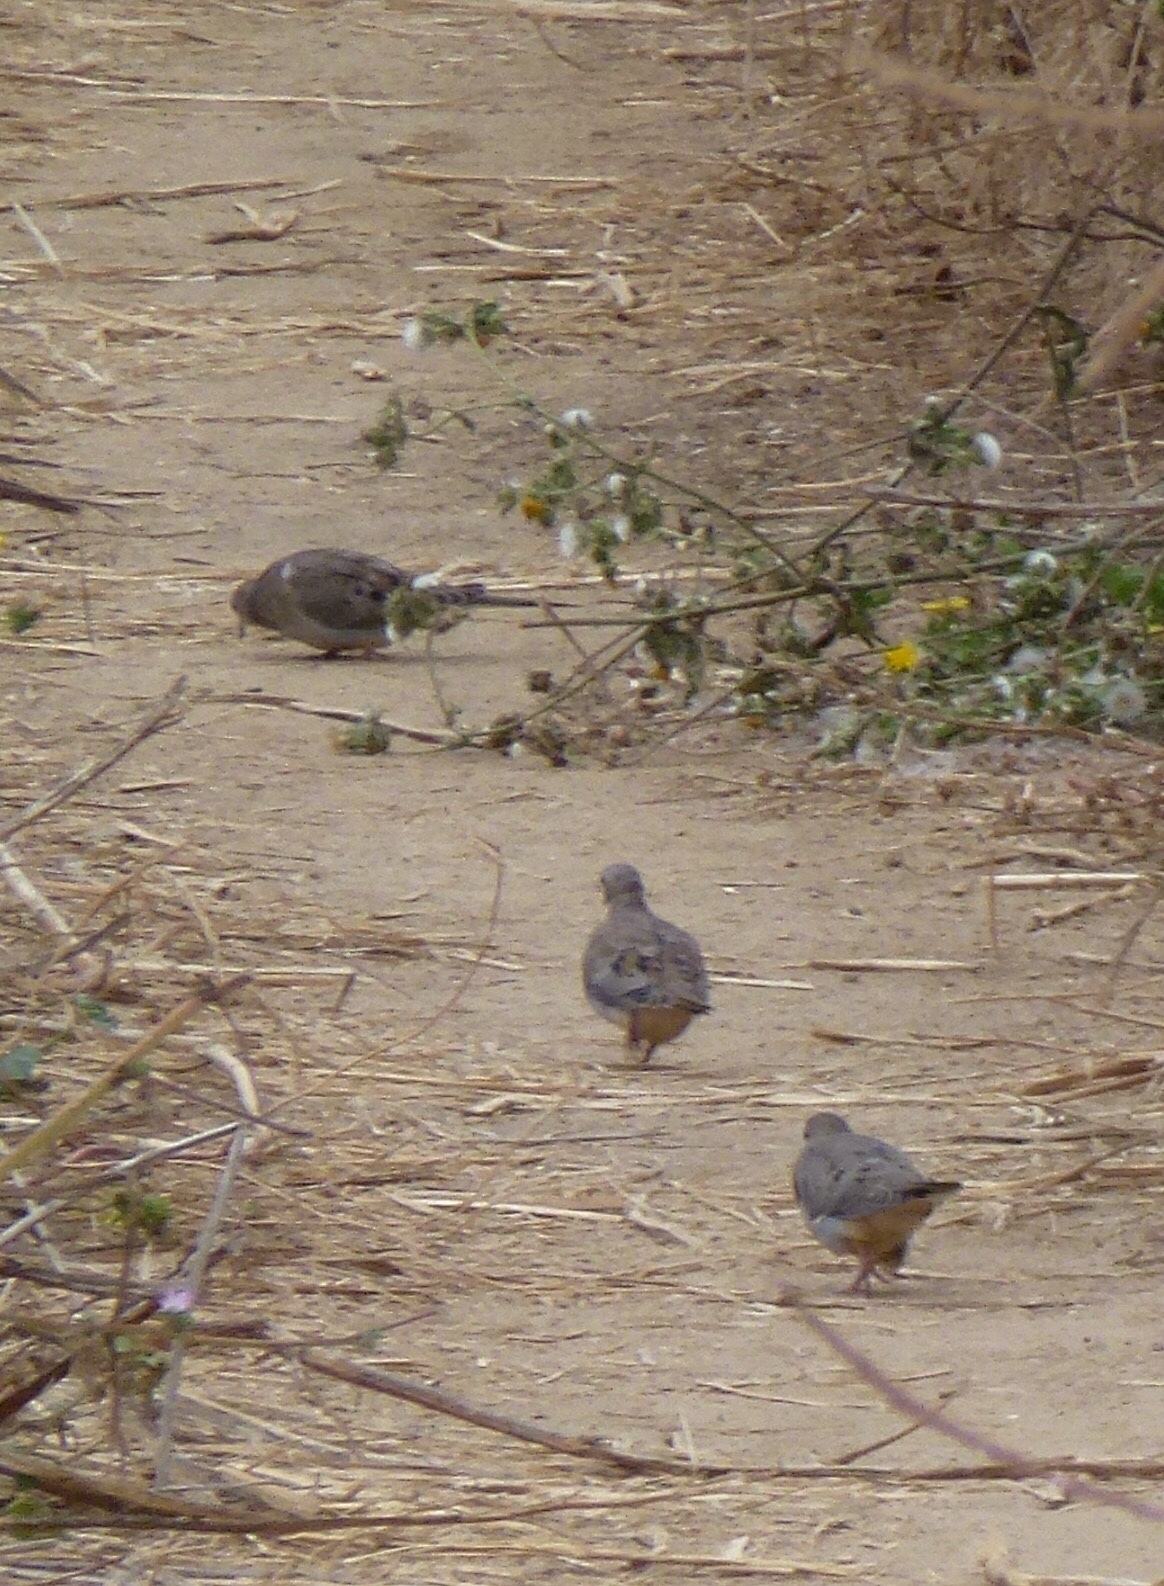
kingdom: Animalia
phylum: Chordata
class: Aves
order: Columbiformes
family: Columbidae
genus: Zenaida
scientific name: Zenaida macroura
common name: Mourning dove
